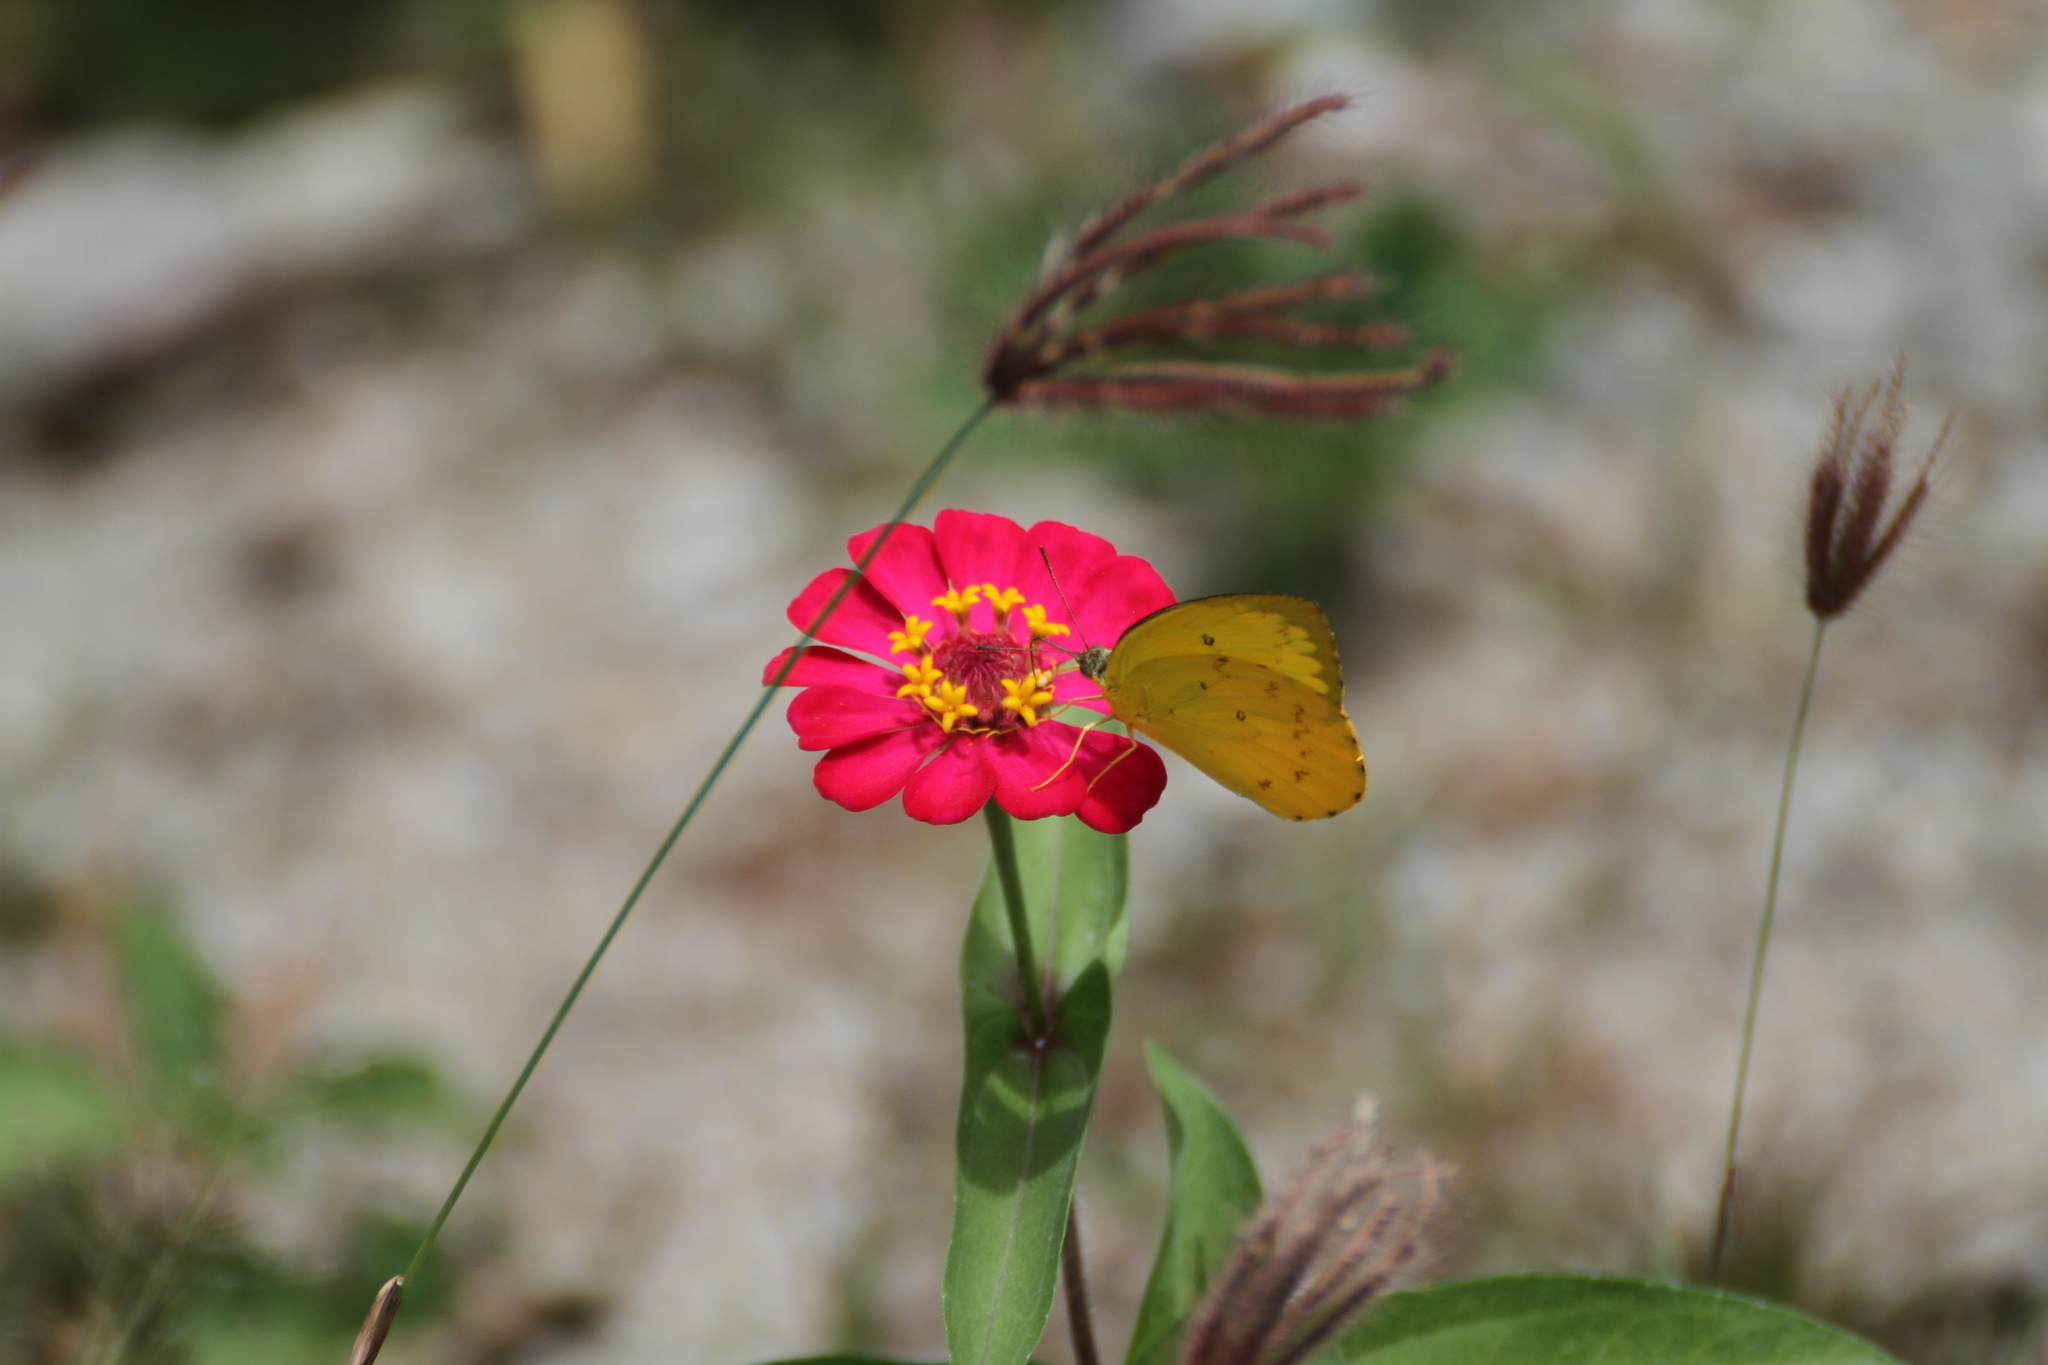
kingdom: Animalia
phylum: Arthropoda
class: Insecta
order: Lepidoptera
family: Pieridae
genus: Catopsilia
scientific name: Catopsilia scylla
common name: Orange emigrant
